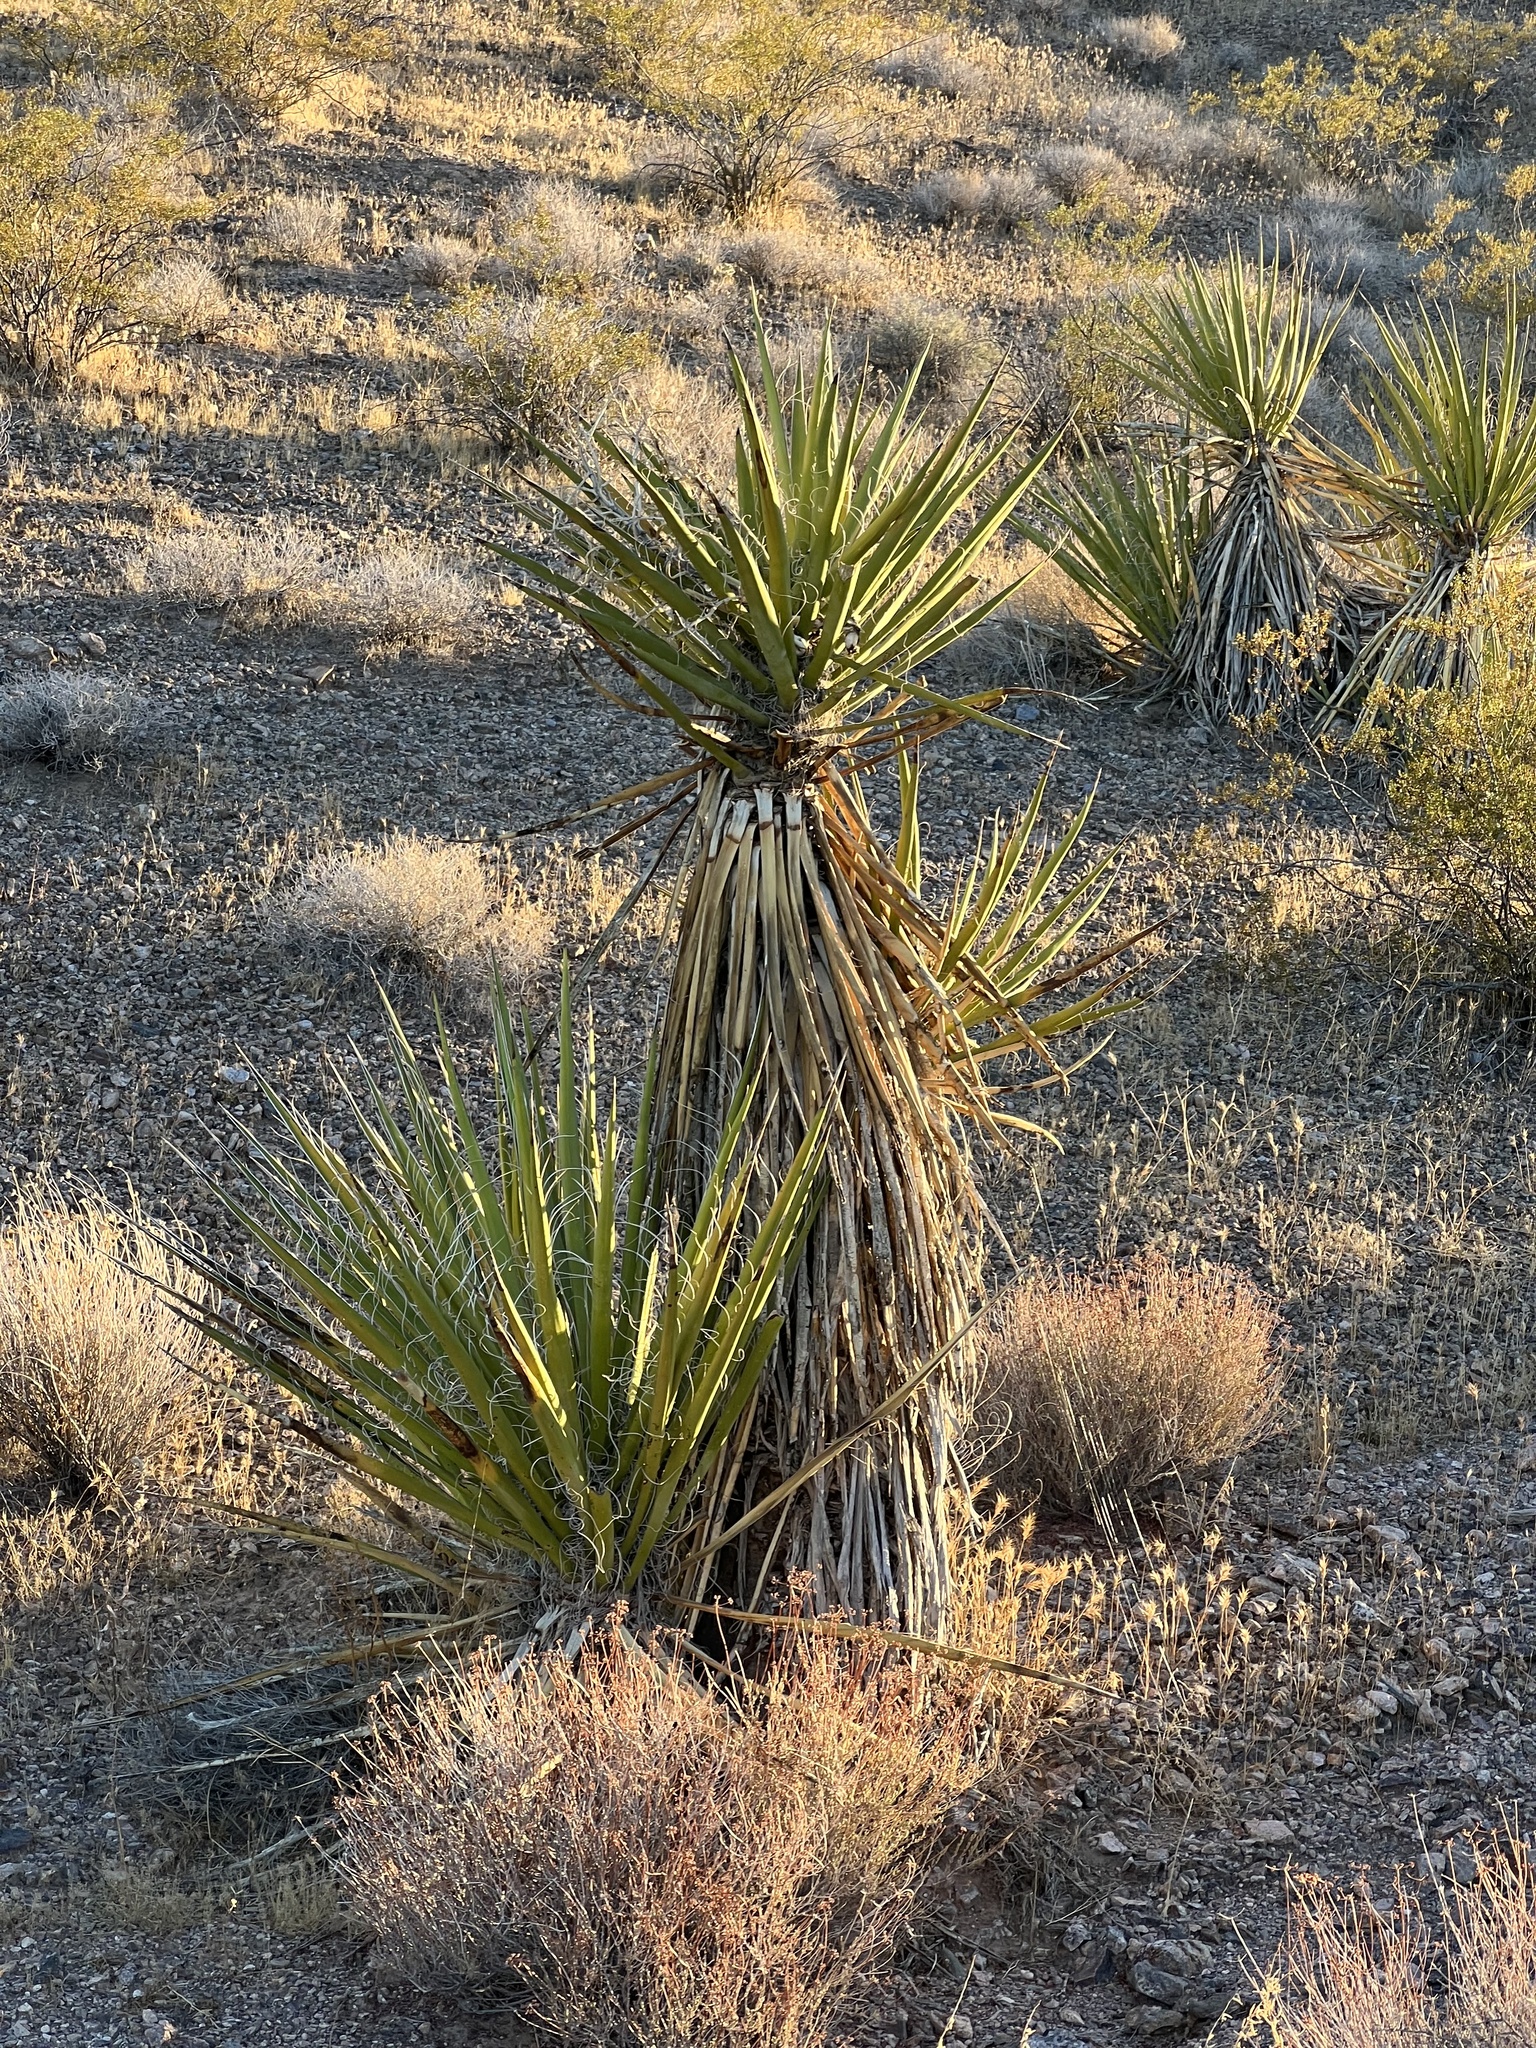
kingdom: Plantae
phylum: Tracheophyta
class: Liliopsida
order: Asparagales
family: Asparagaceae
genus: Yucca
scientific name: Yucca schidigera
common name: Mojave yucca
